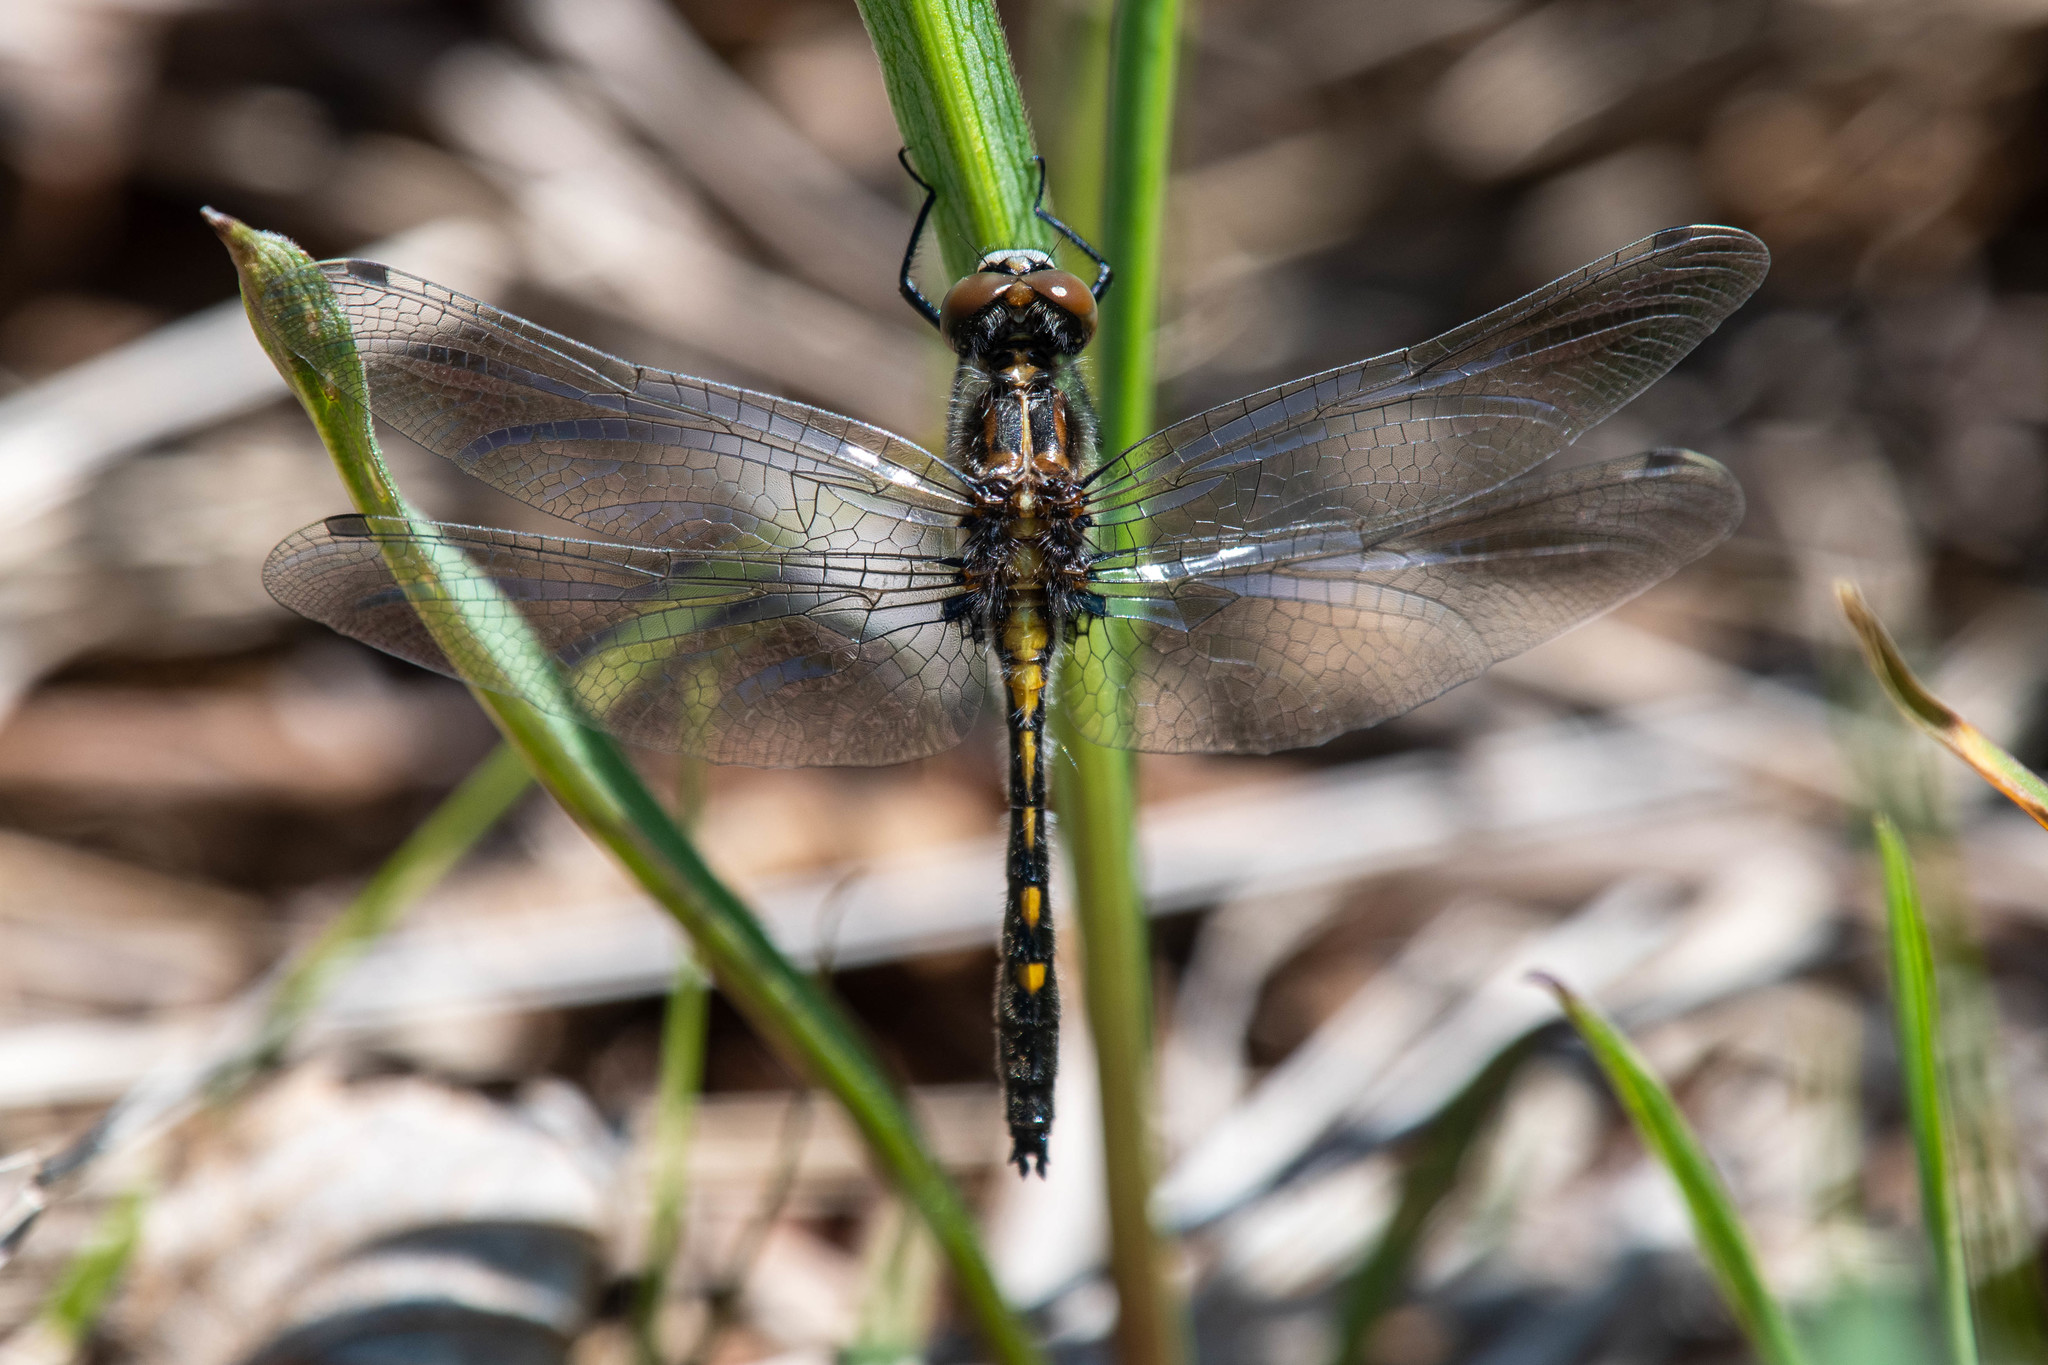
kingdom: Animalia
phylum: Arthropoda
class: Insecta
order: Odonata
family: Libellulidae
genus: Leucorrhinia
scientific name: Leucorrhinia intacta
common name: Dot-tailed whiteface
